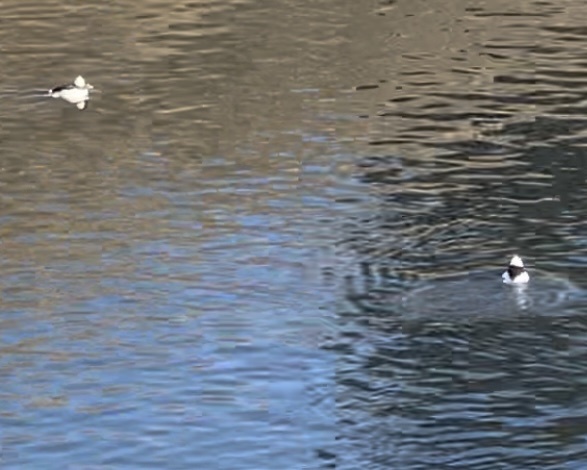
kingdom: Animalia
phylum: Chordata
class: Aves
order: Anseriformes
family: Anatidae
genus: Bucephala
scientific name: Bucephala albeola
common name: Bufflehead
